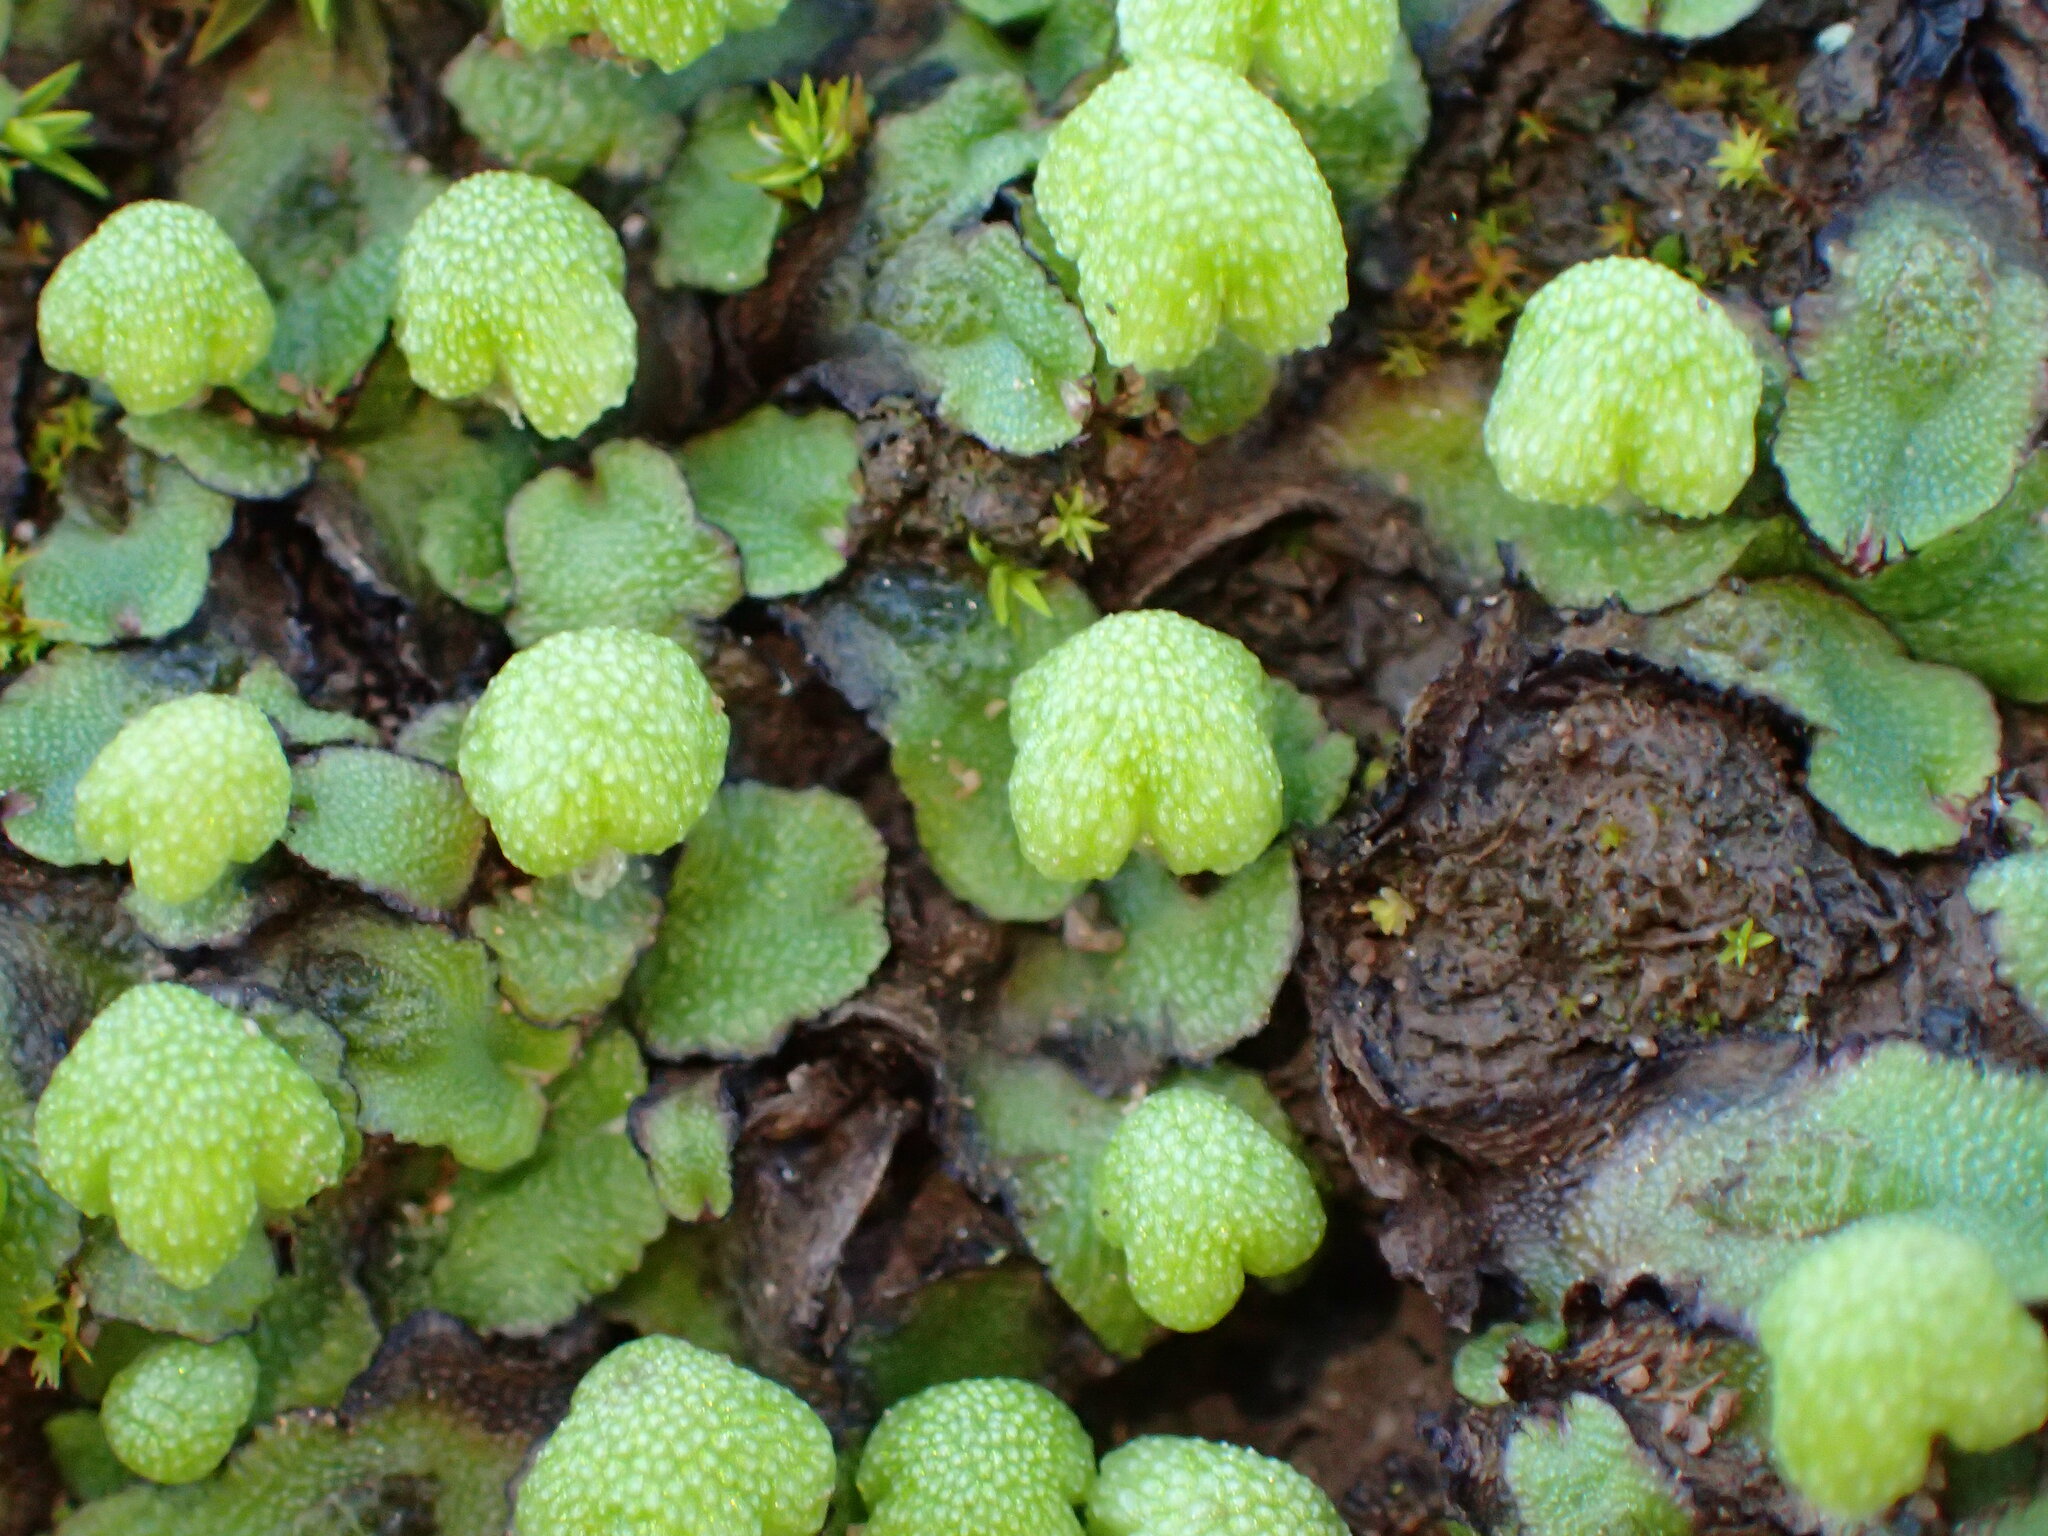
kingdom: Plantae
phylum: Marchantiophyta
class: Marchantiopsida
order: Marchantiales
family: Aytoniaceae
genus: Asterella
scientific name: Asterella californica
